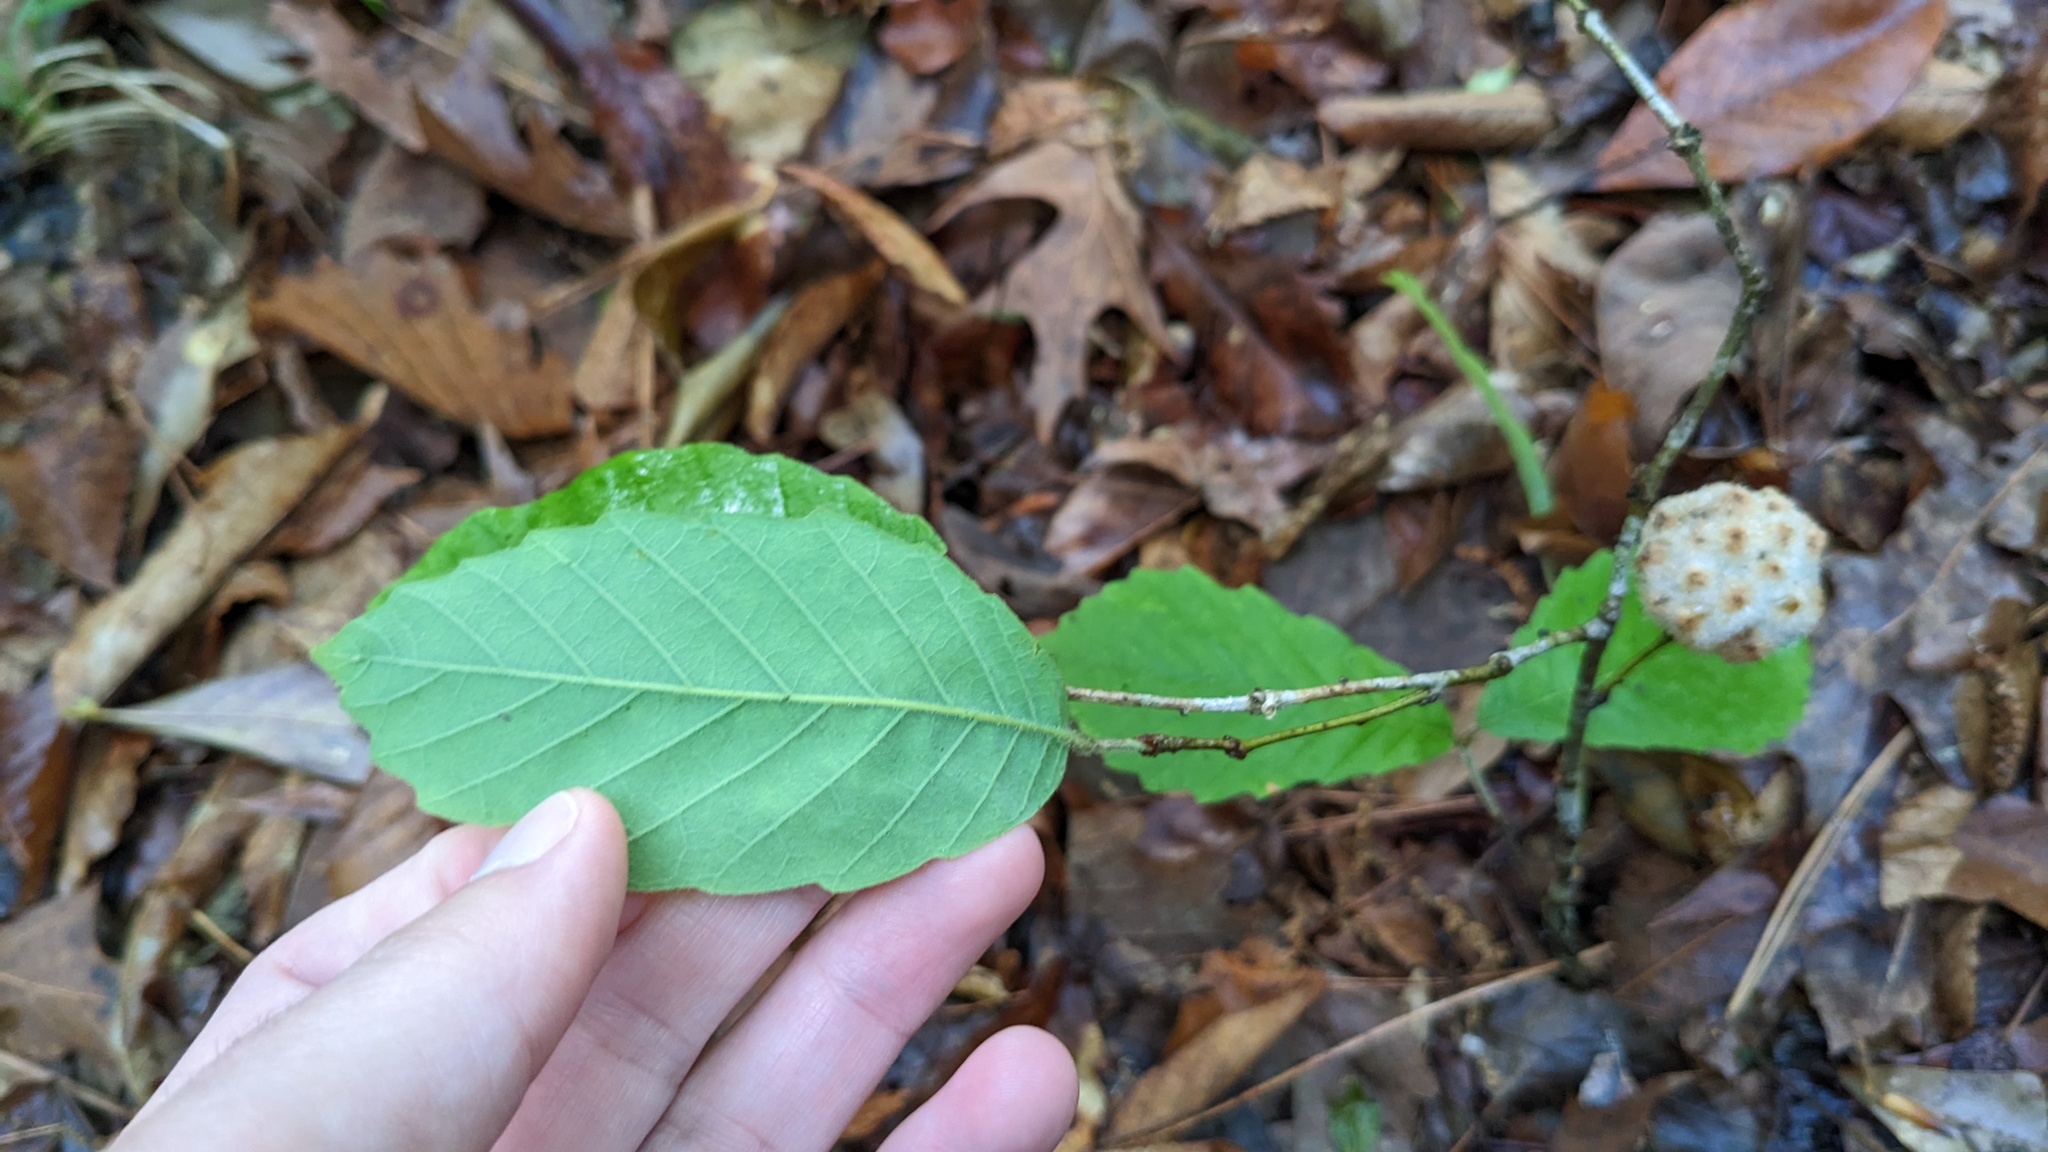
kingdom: Animalia
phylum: Arthropoda
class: Insecta
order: Hymenoptera
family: Cynipidae
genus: Callirhytis
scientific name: Callirhytis
